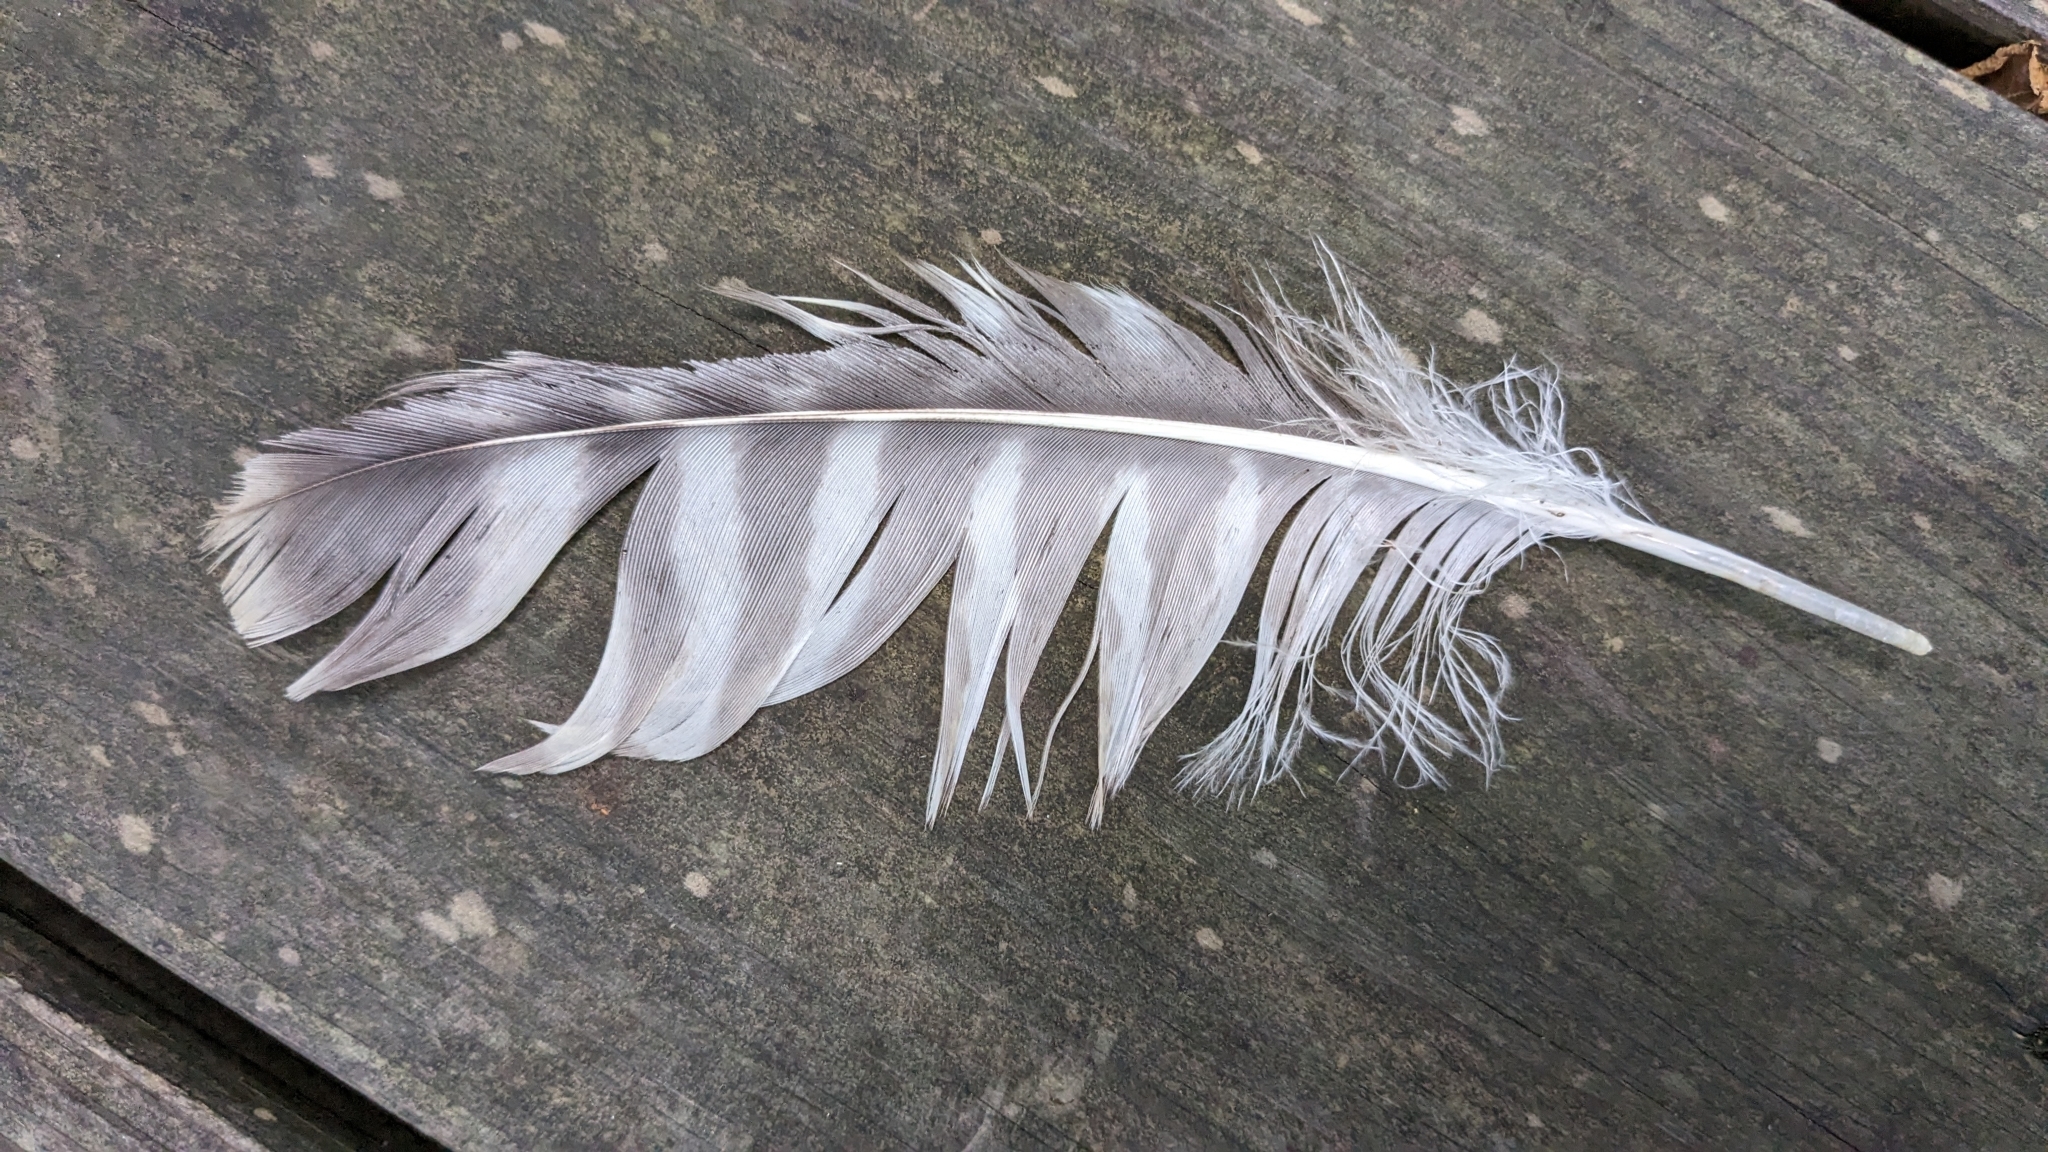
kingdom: Animalia
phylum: Chordata
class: Aves
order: Accipitriformes
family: Accipitridae
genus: Buteo
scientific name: Buteo lineatus
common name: Red-shouldered hawk
